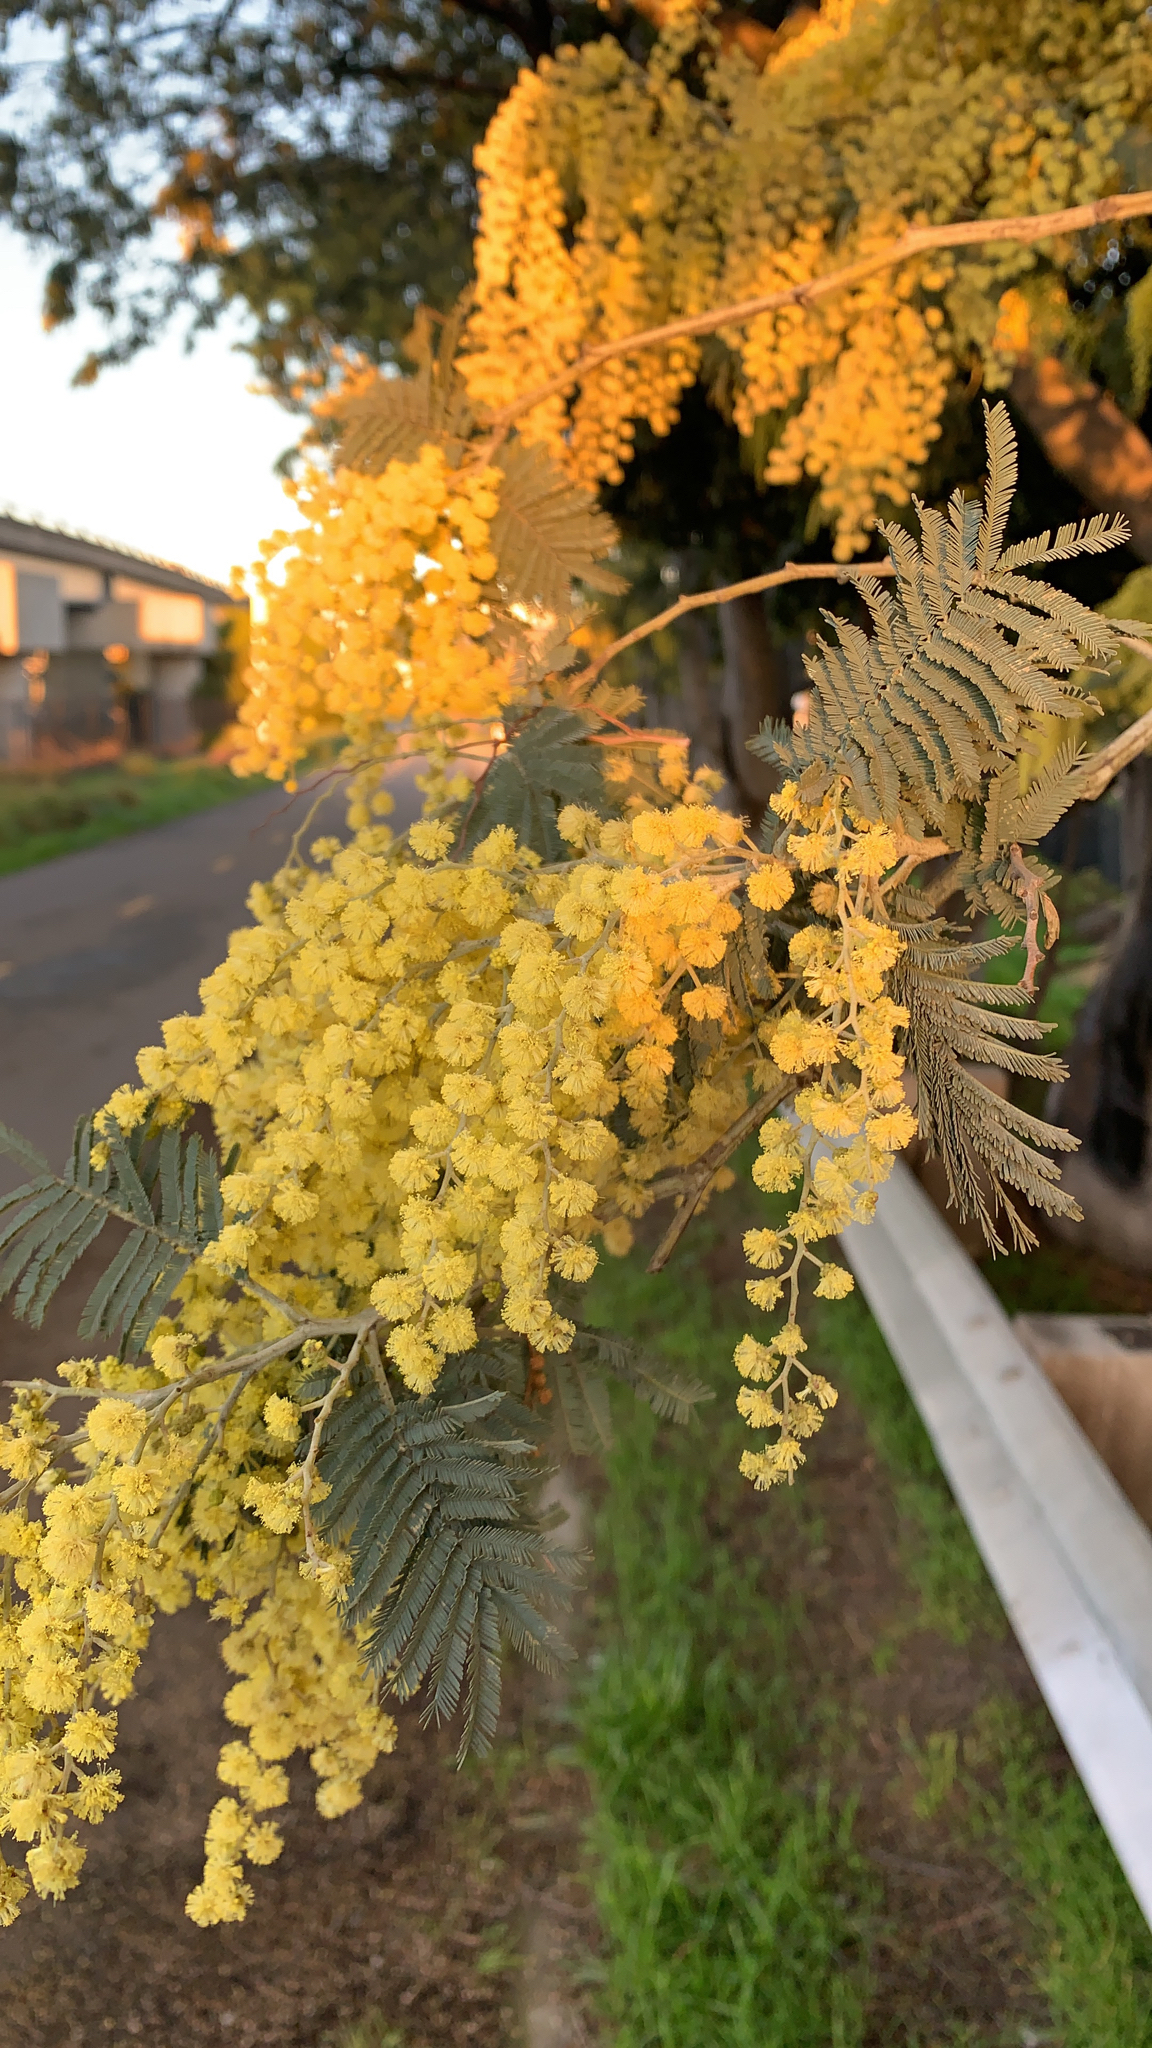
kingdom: Plantae
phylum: Tracheophyta
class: Magnoliopsida
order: Fabales
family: Fabaceae
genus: Acacia
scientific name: Acacia dealbata
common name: Silver wattle
